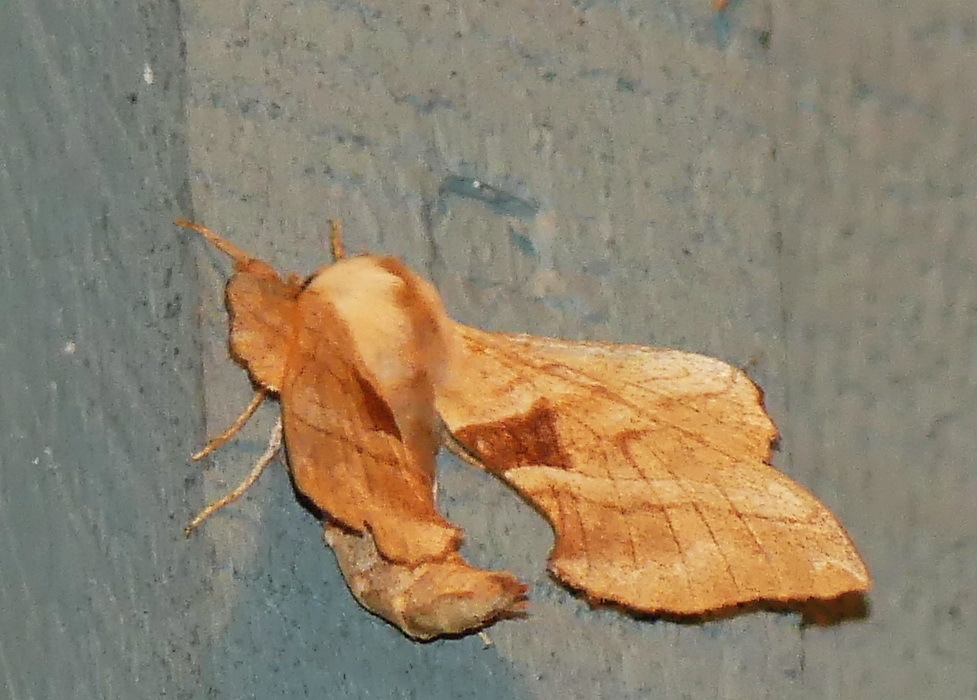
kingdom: Animalia
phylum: Arthropoda
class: Insecta
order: Lepidoptera
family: Sphingidae
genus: Amorpha
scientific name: Amorpha juglandis
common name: Walnut sphinx
